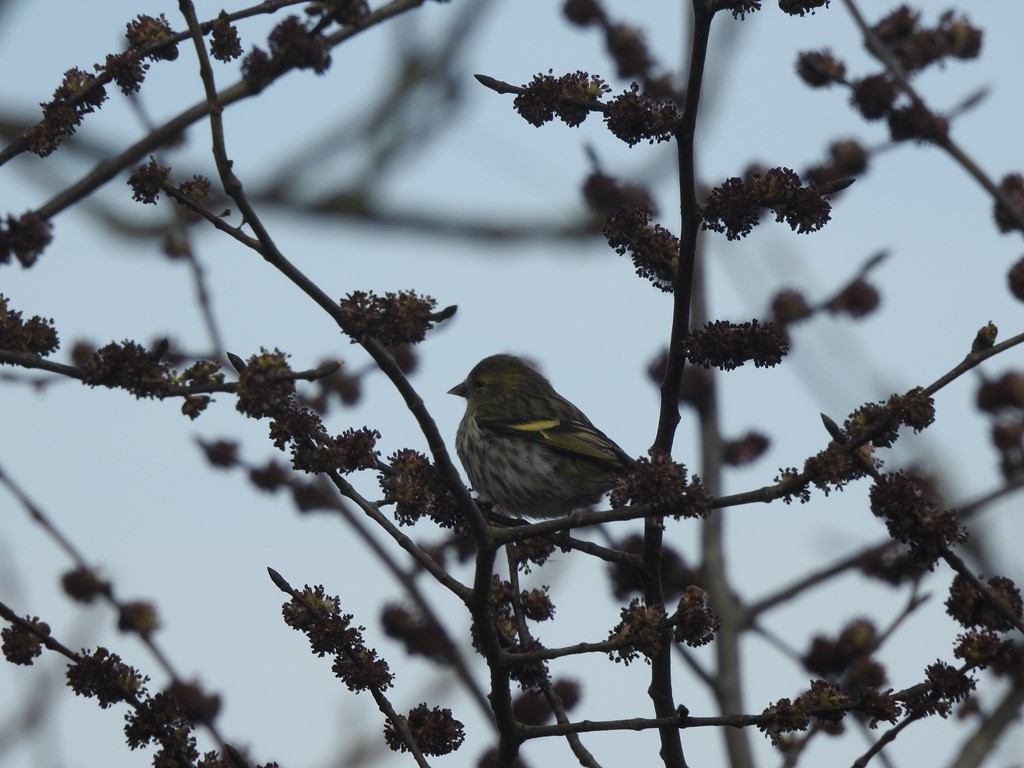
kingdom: Animalia
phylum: Chordata
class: Aves
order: Passeriformes
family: Fringillidae
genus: Spinus
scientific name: Spinus spinus
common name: Eurasian siskin
